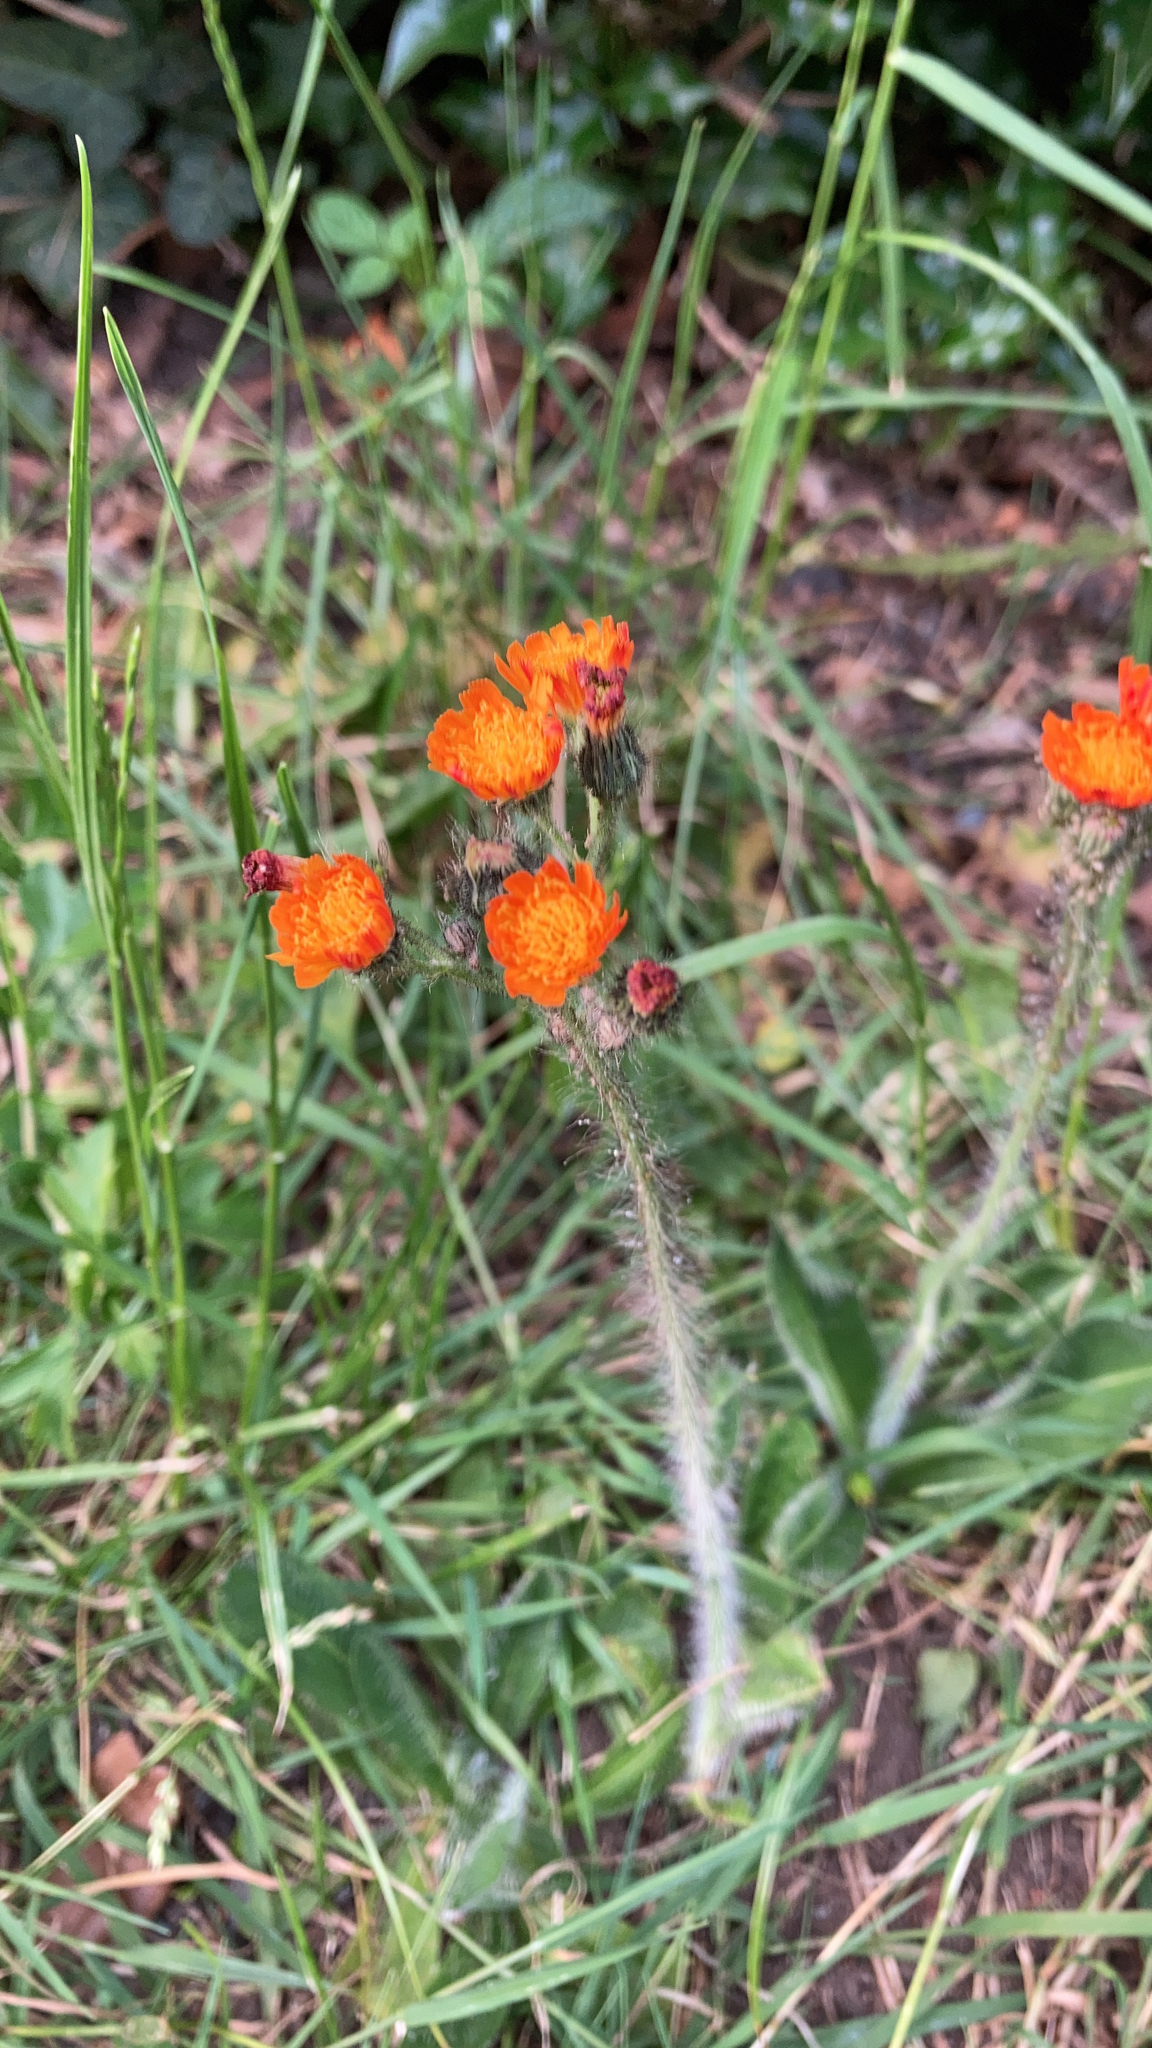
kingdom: Plantae
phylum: Tracheophyta
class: Magnoliopsida
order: Asterales
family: Asteraceae
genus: Pilosella
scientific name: Pilosella aurantiaca
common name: Fox-and-cubs
